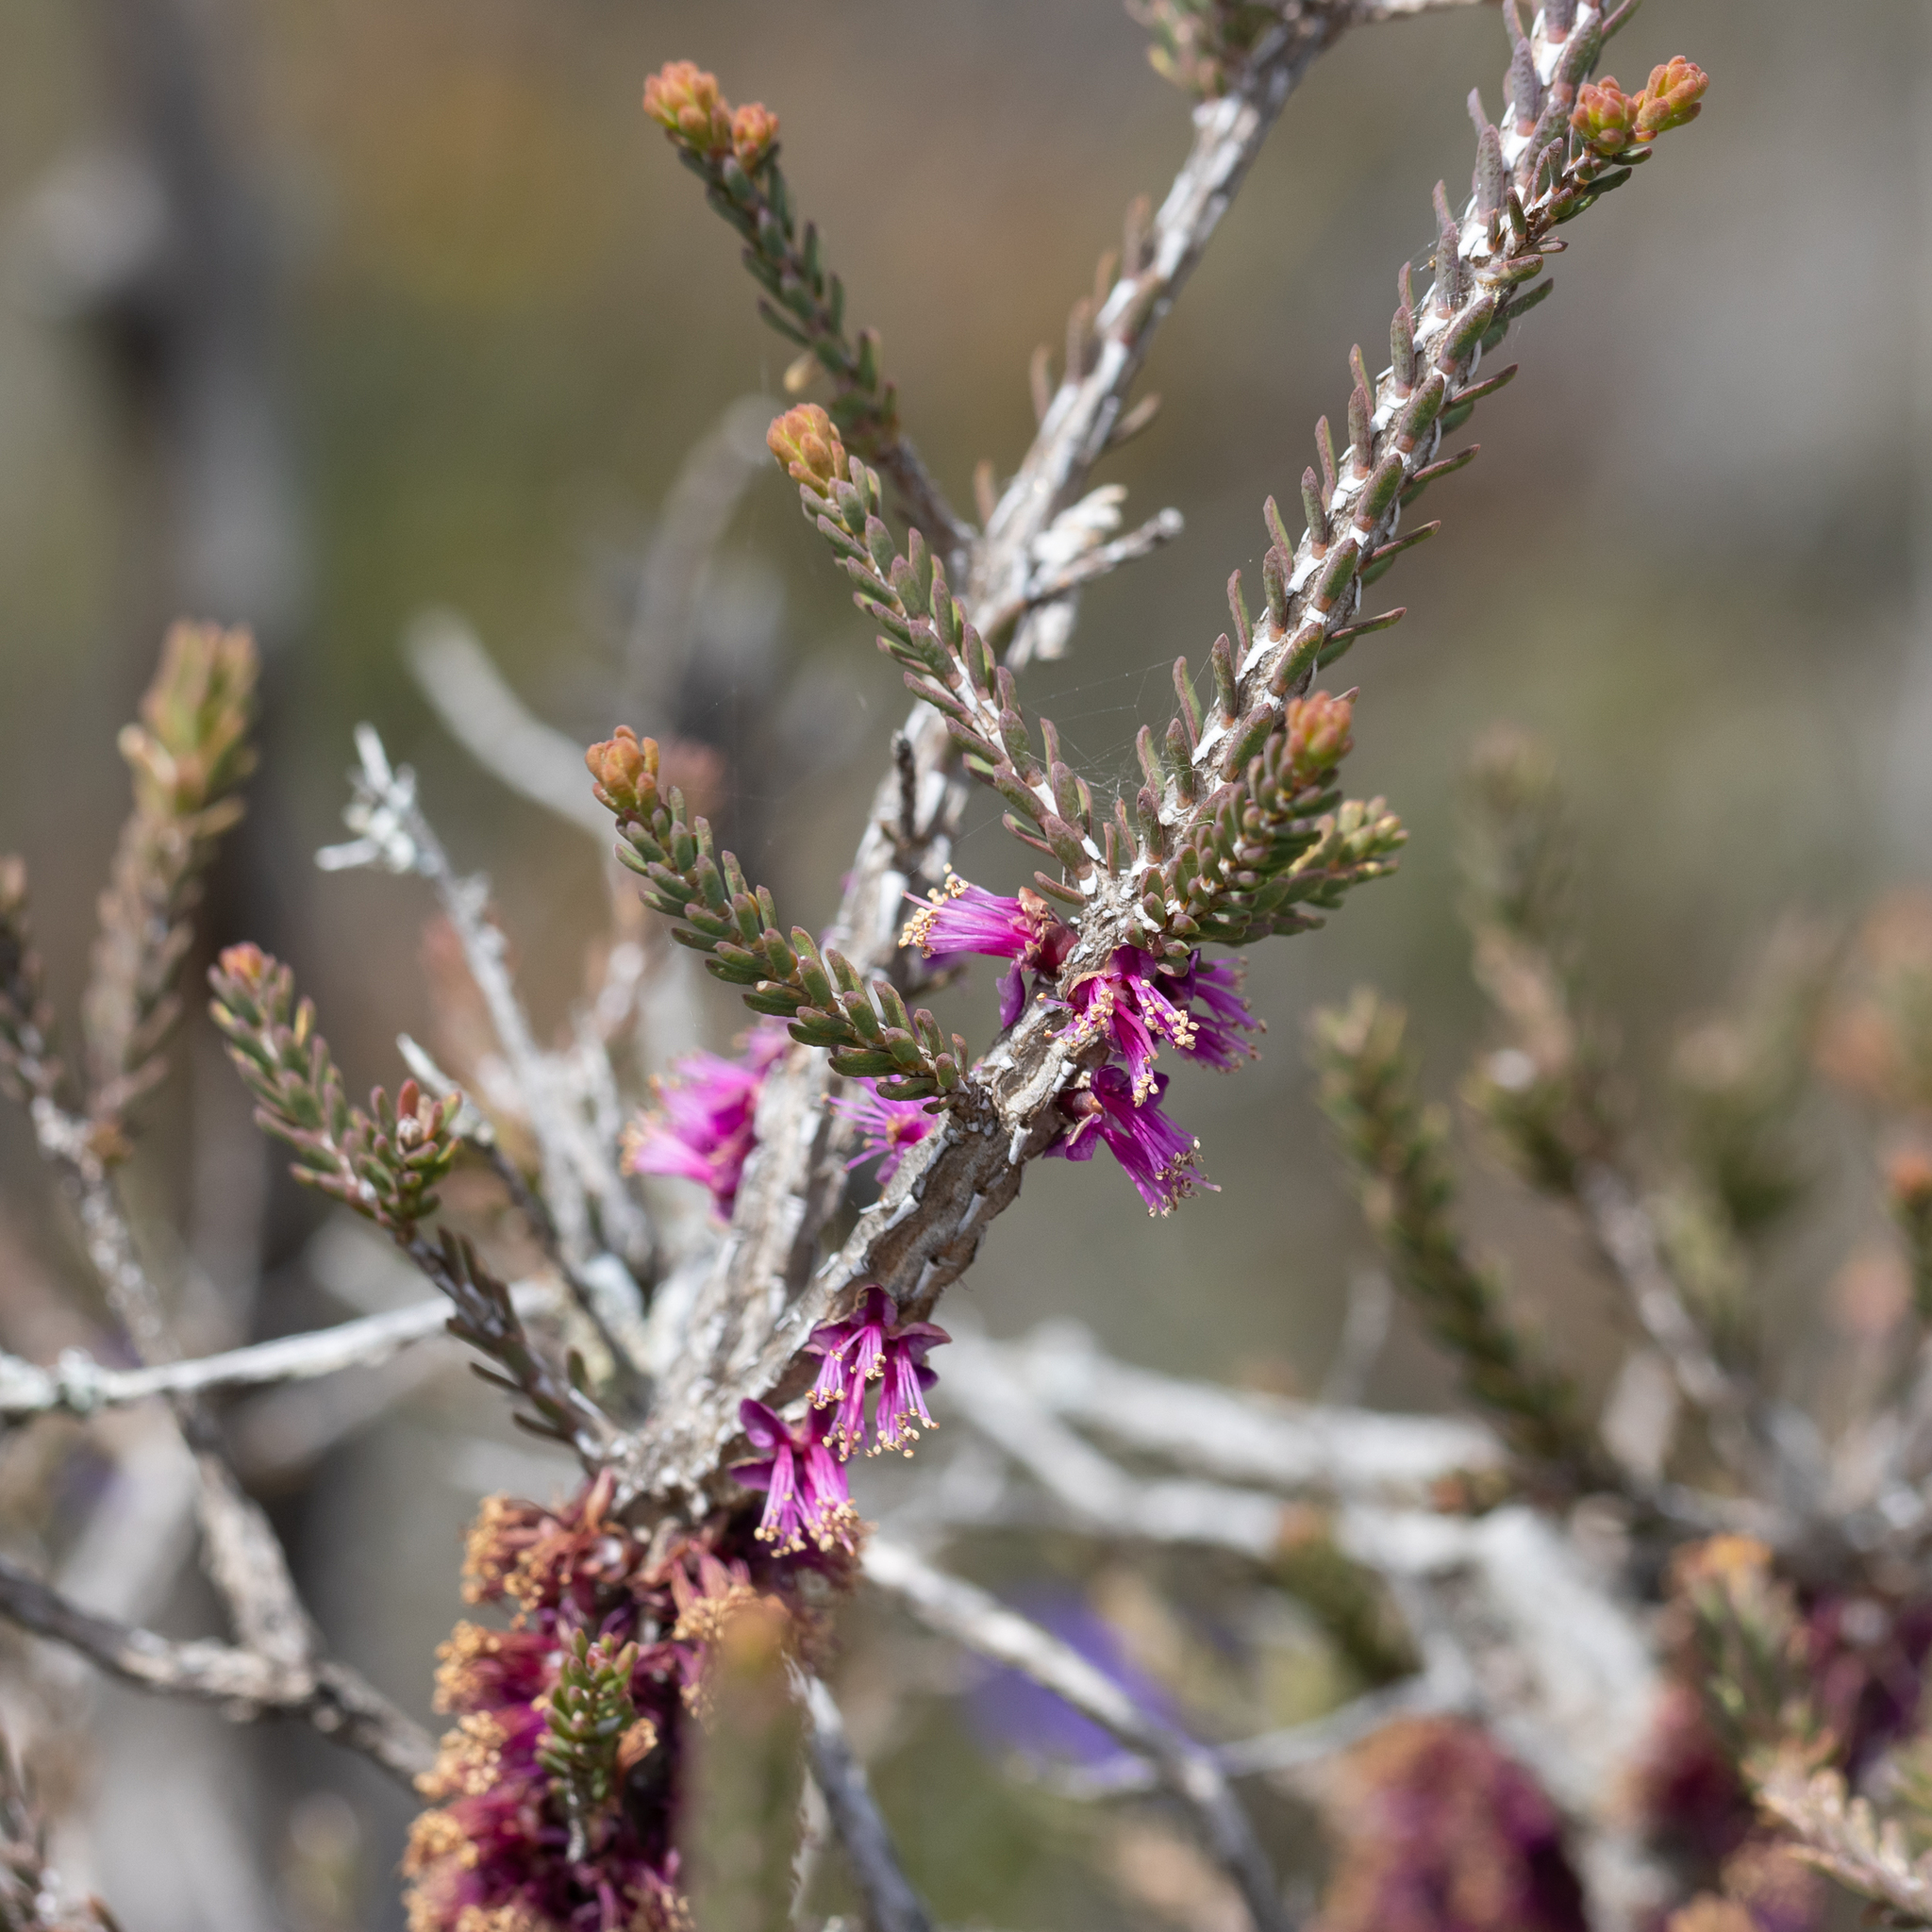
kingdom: Plantae
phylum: Tracheophyta
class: Magnoliopsida
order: Myrtales
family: Myrtaceae
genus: Melaleuca
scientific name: Melaleuca suberosa
